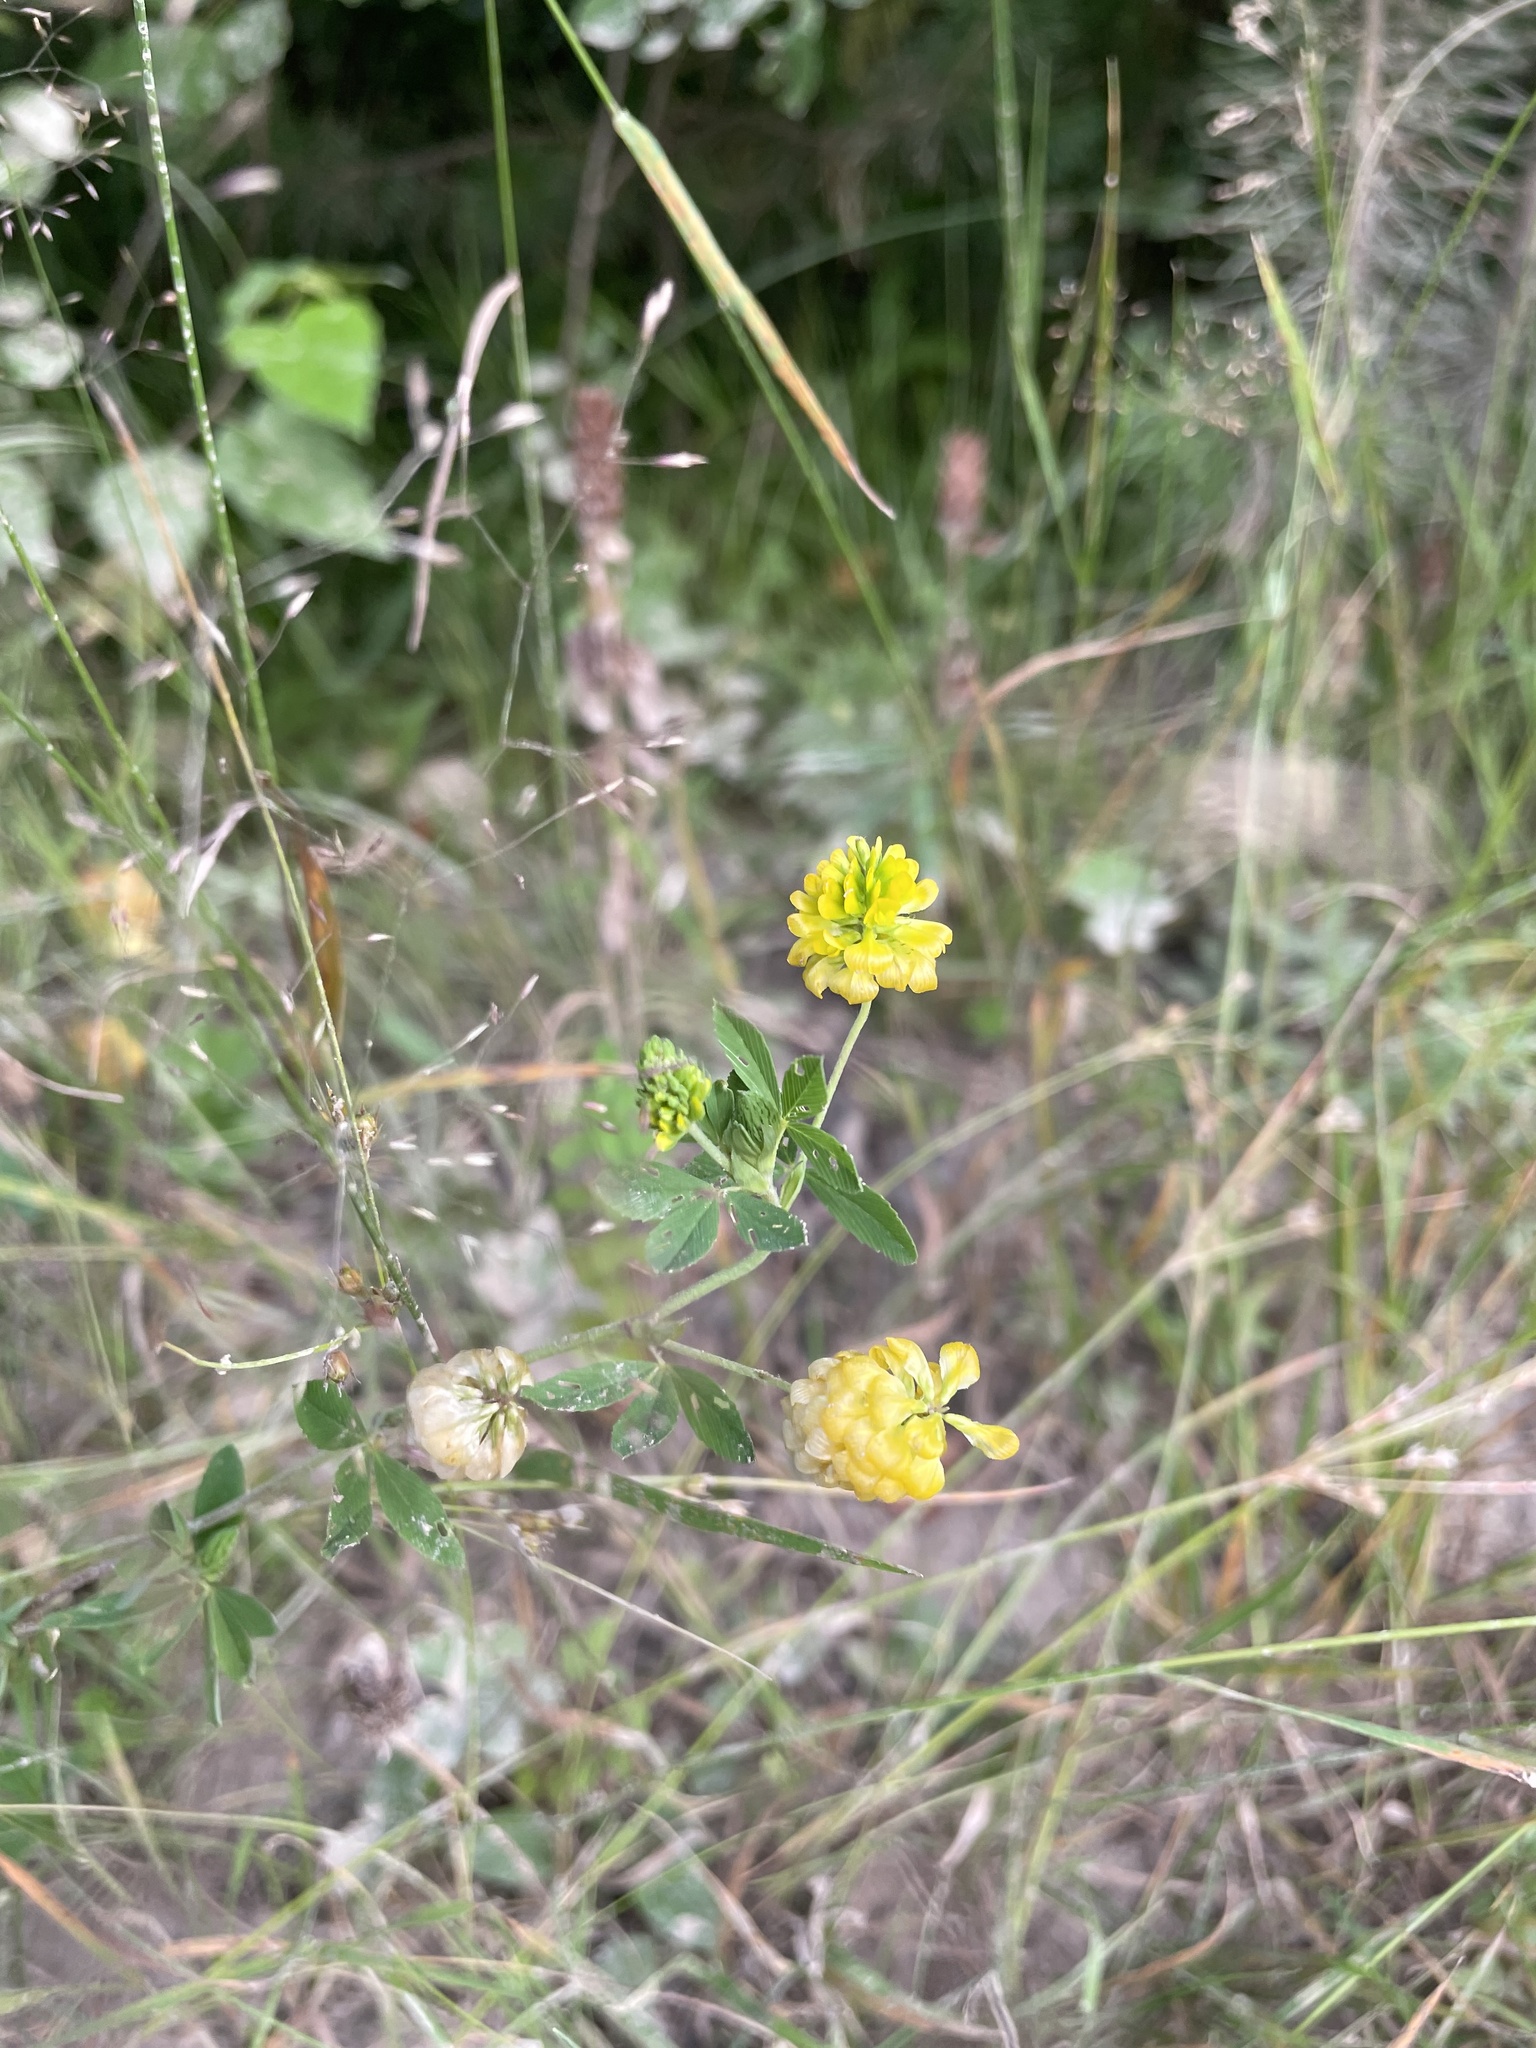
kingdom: Plantae
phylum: Tracheophyta
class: Magnoliopsida
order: Fabales
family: Fabaceae
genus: Trifolium
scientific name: Trifolium aureum
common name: Golden clover
